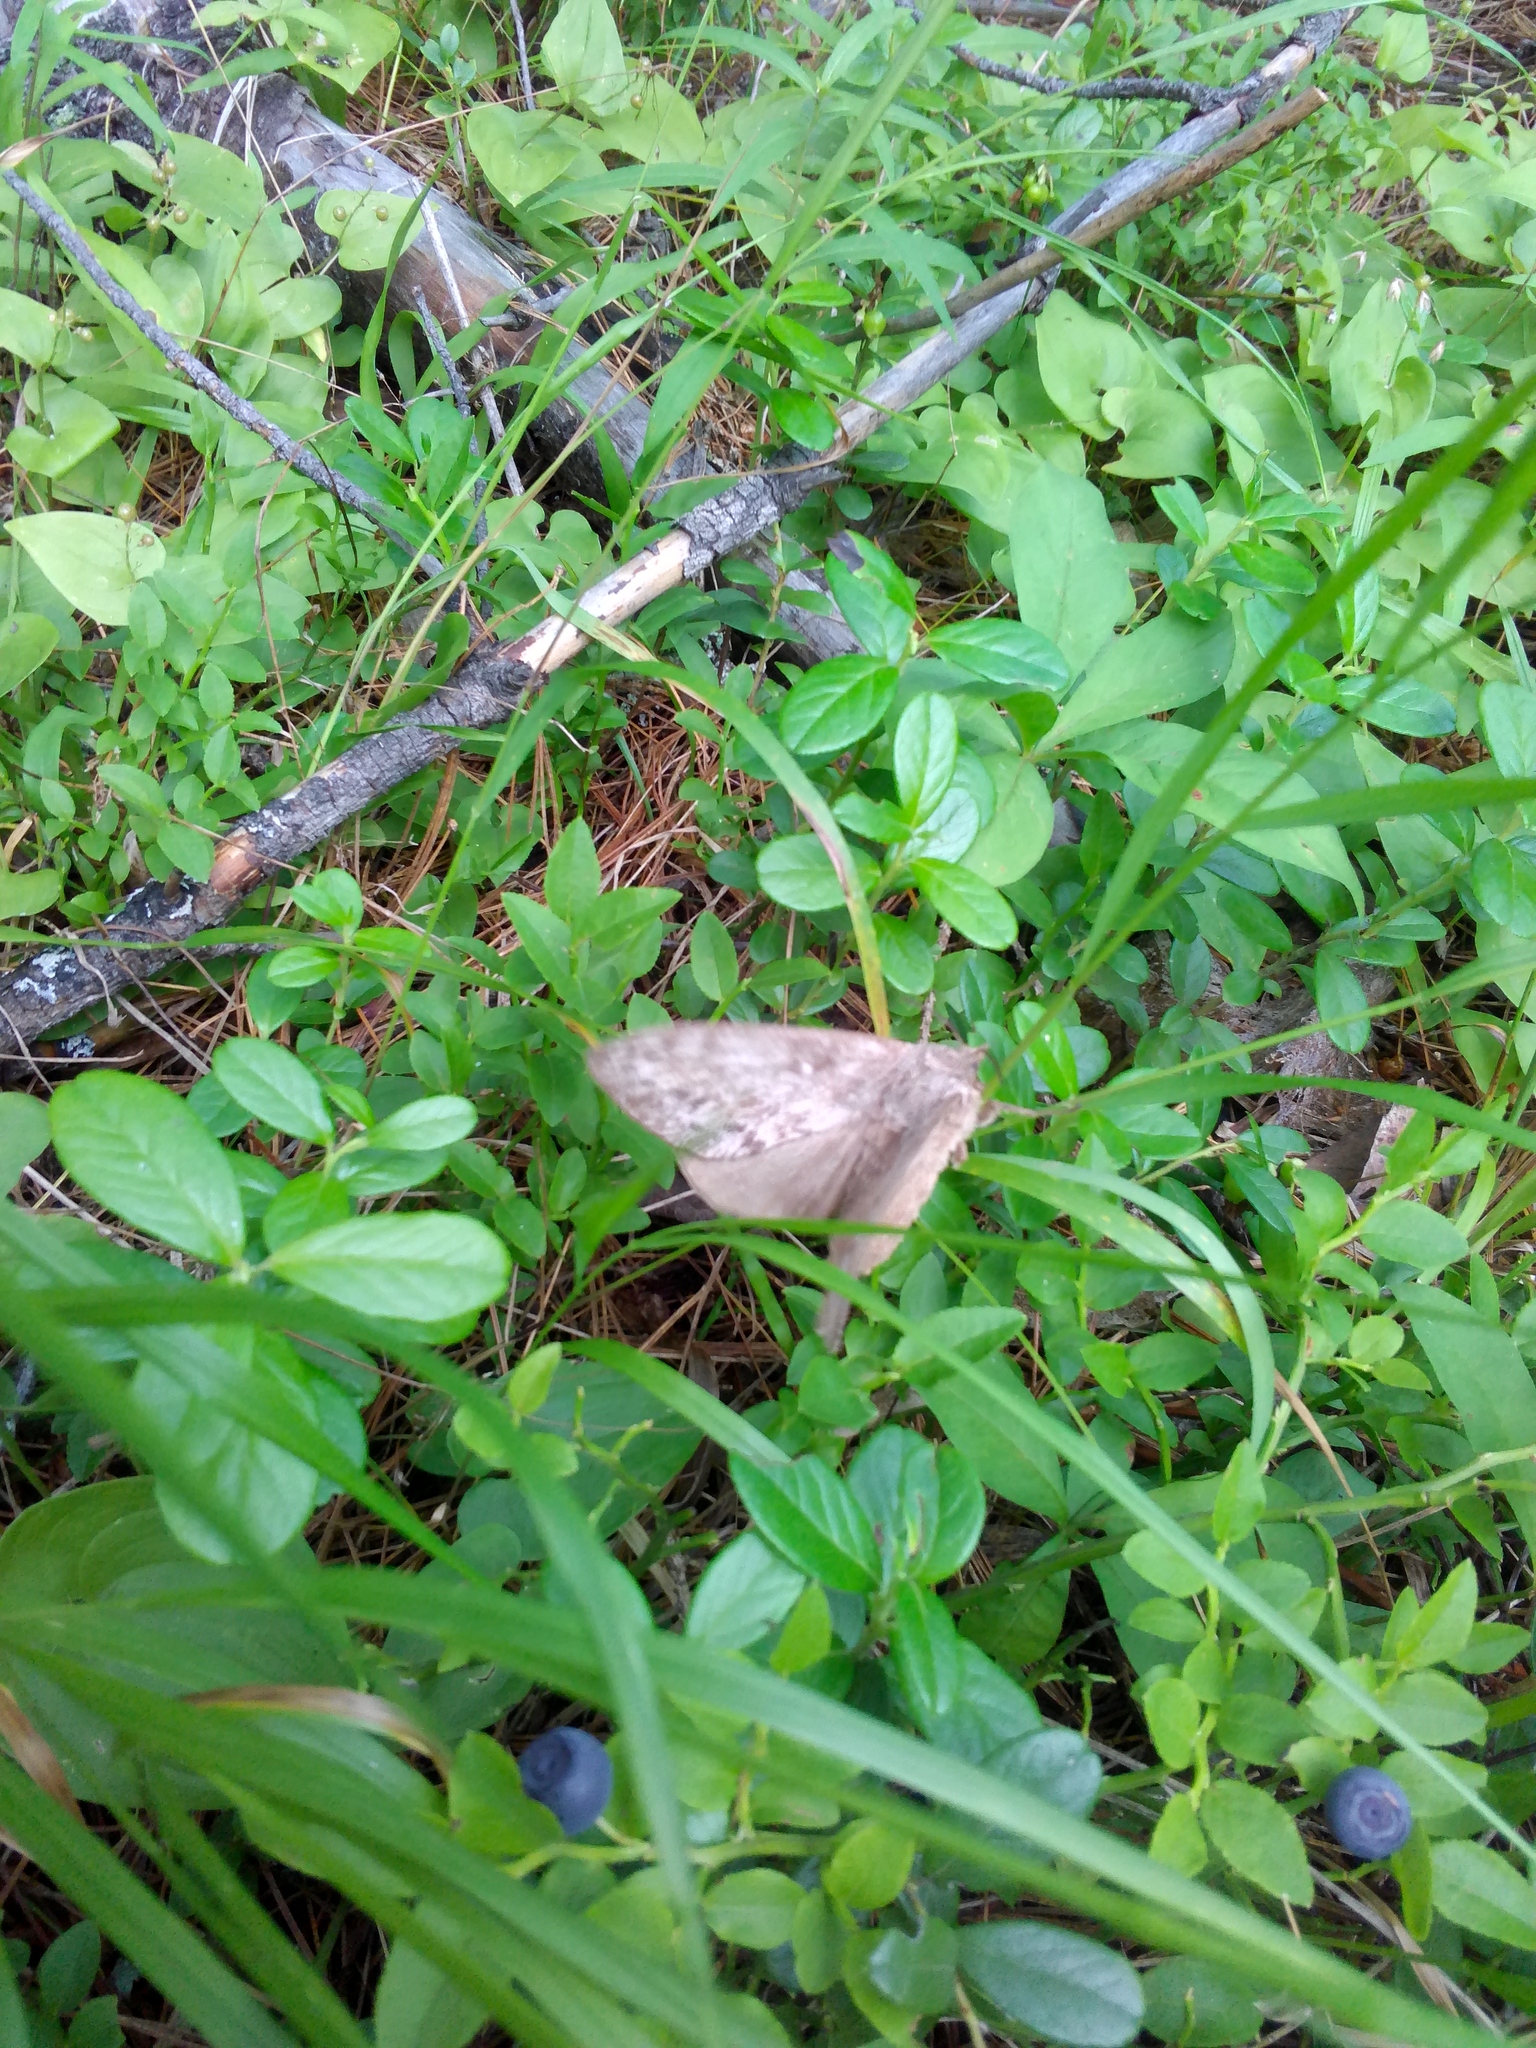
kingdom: Animalia
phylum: Arthropoda
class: Insecta
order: Lepidoptera
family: Lasiocampidae
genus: Dendrolimus
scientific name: Dendrolimus superans
